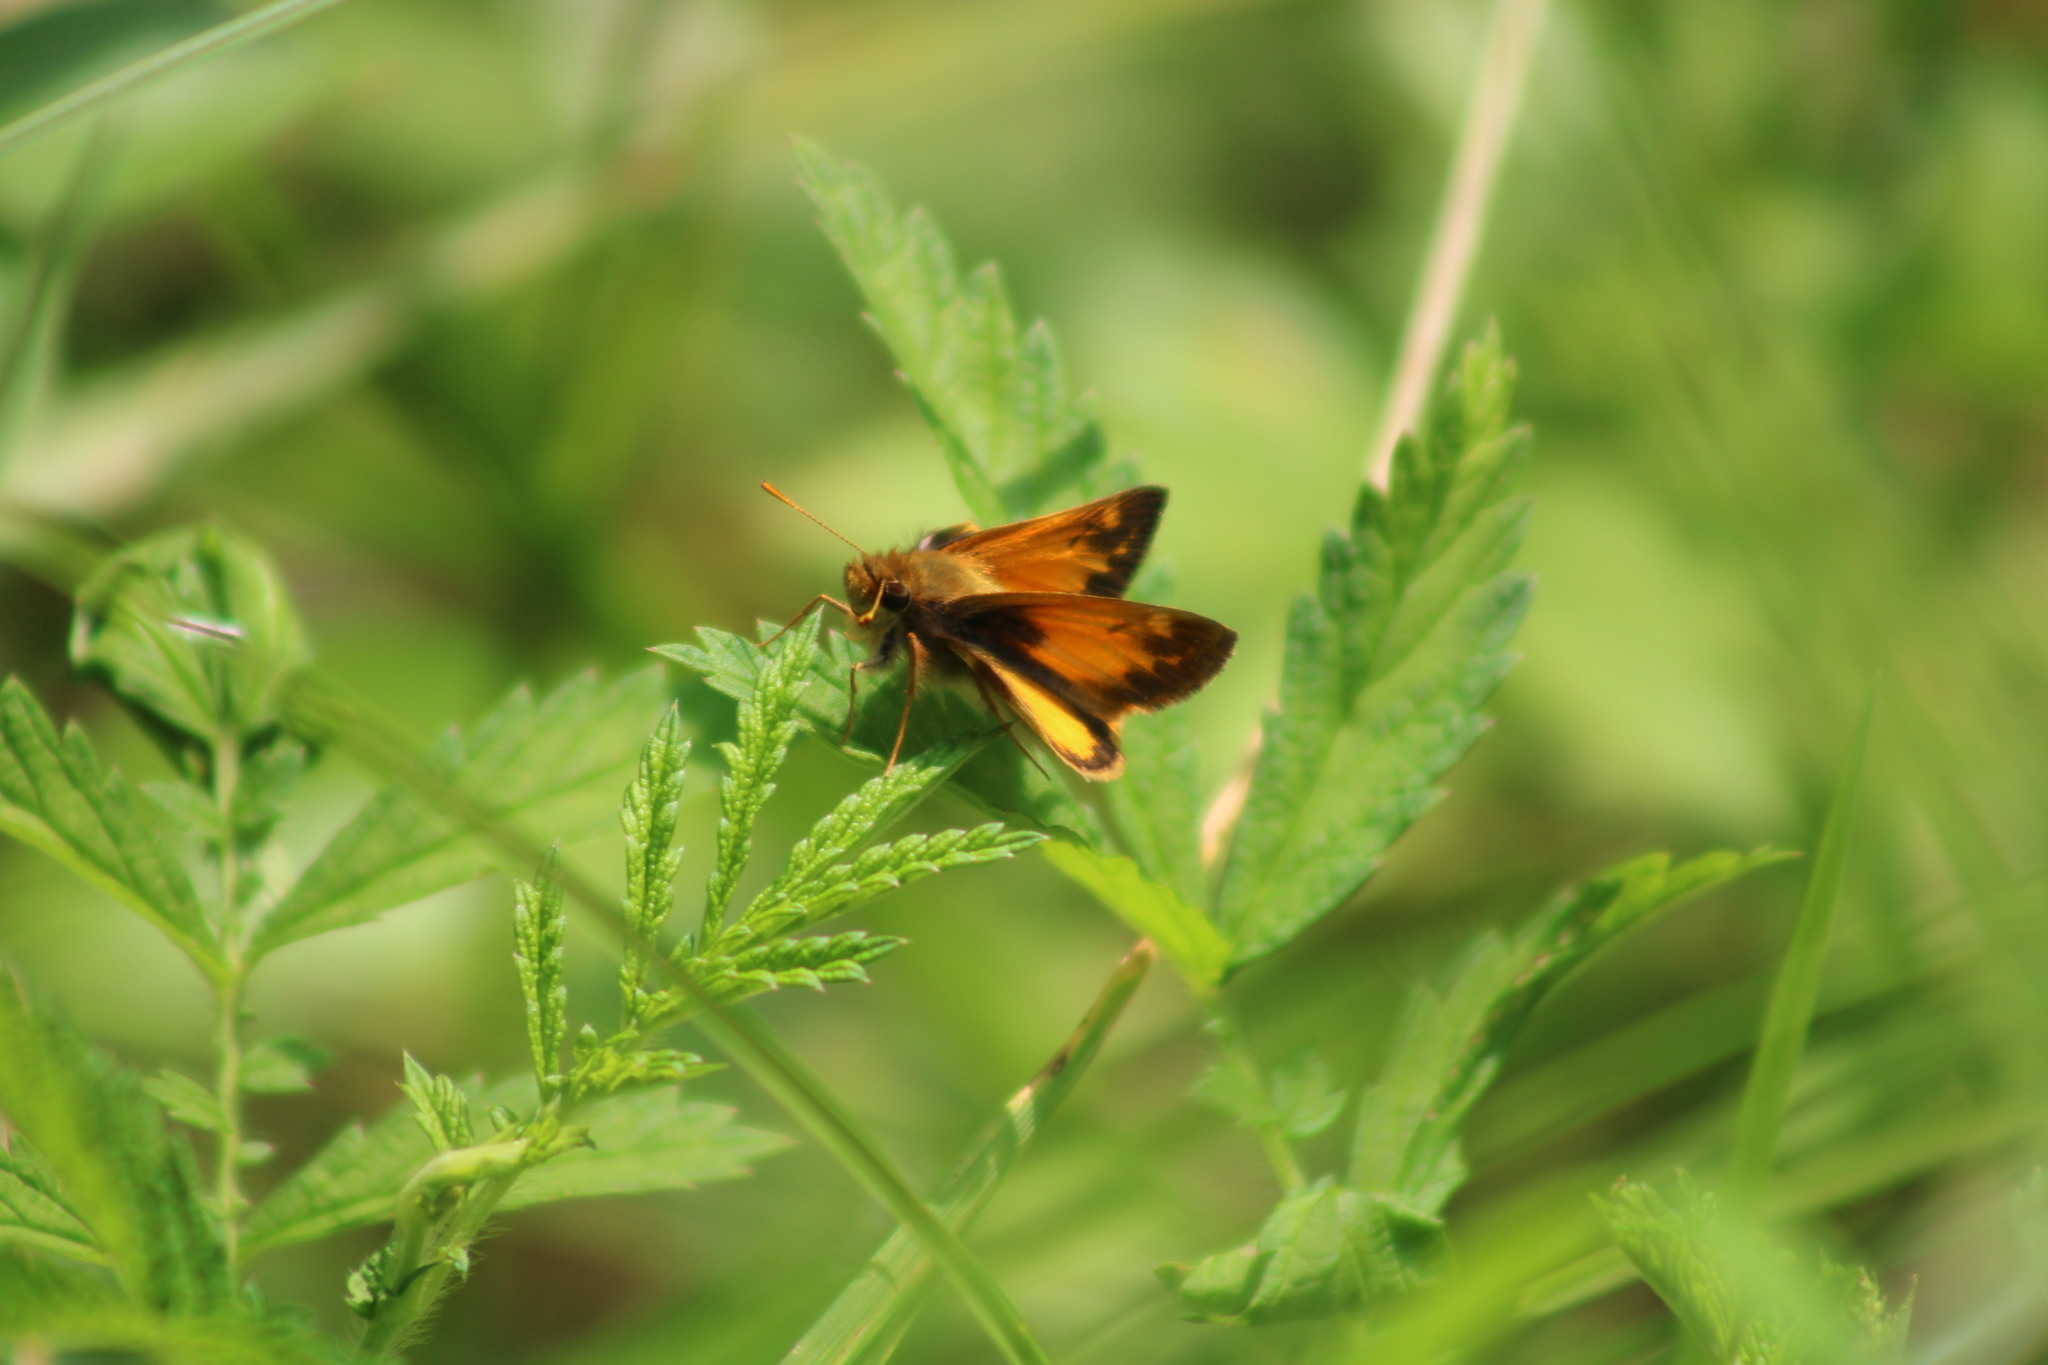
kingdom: Animalia
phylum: Arthropoda
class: Insecta
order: Lepidoptera
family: Hesperiidae
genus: Lon
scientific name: Lon zabulon
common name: Zabulon skipper
